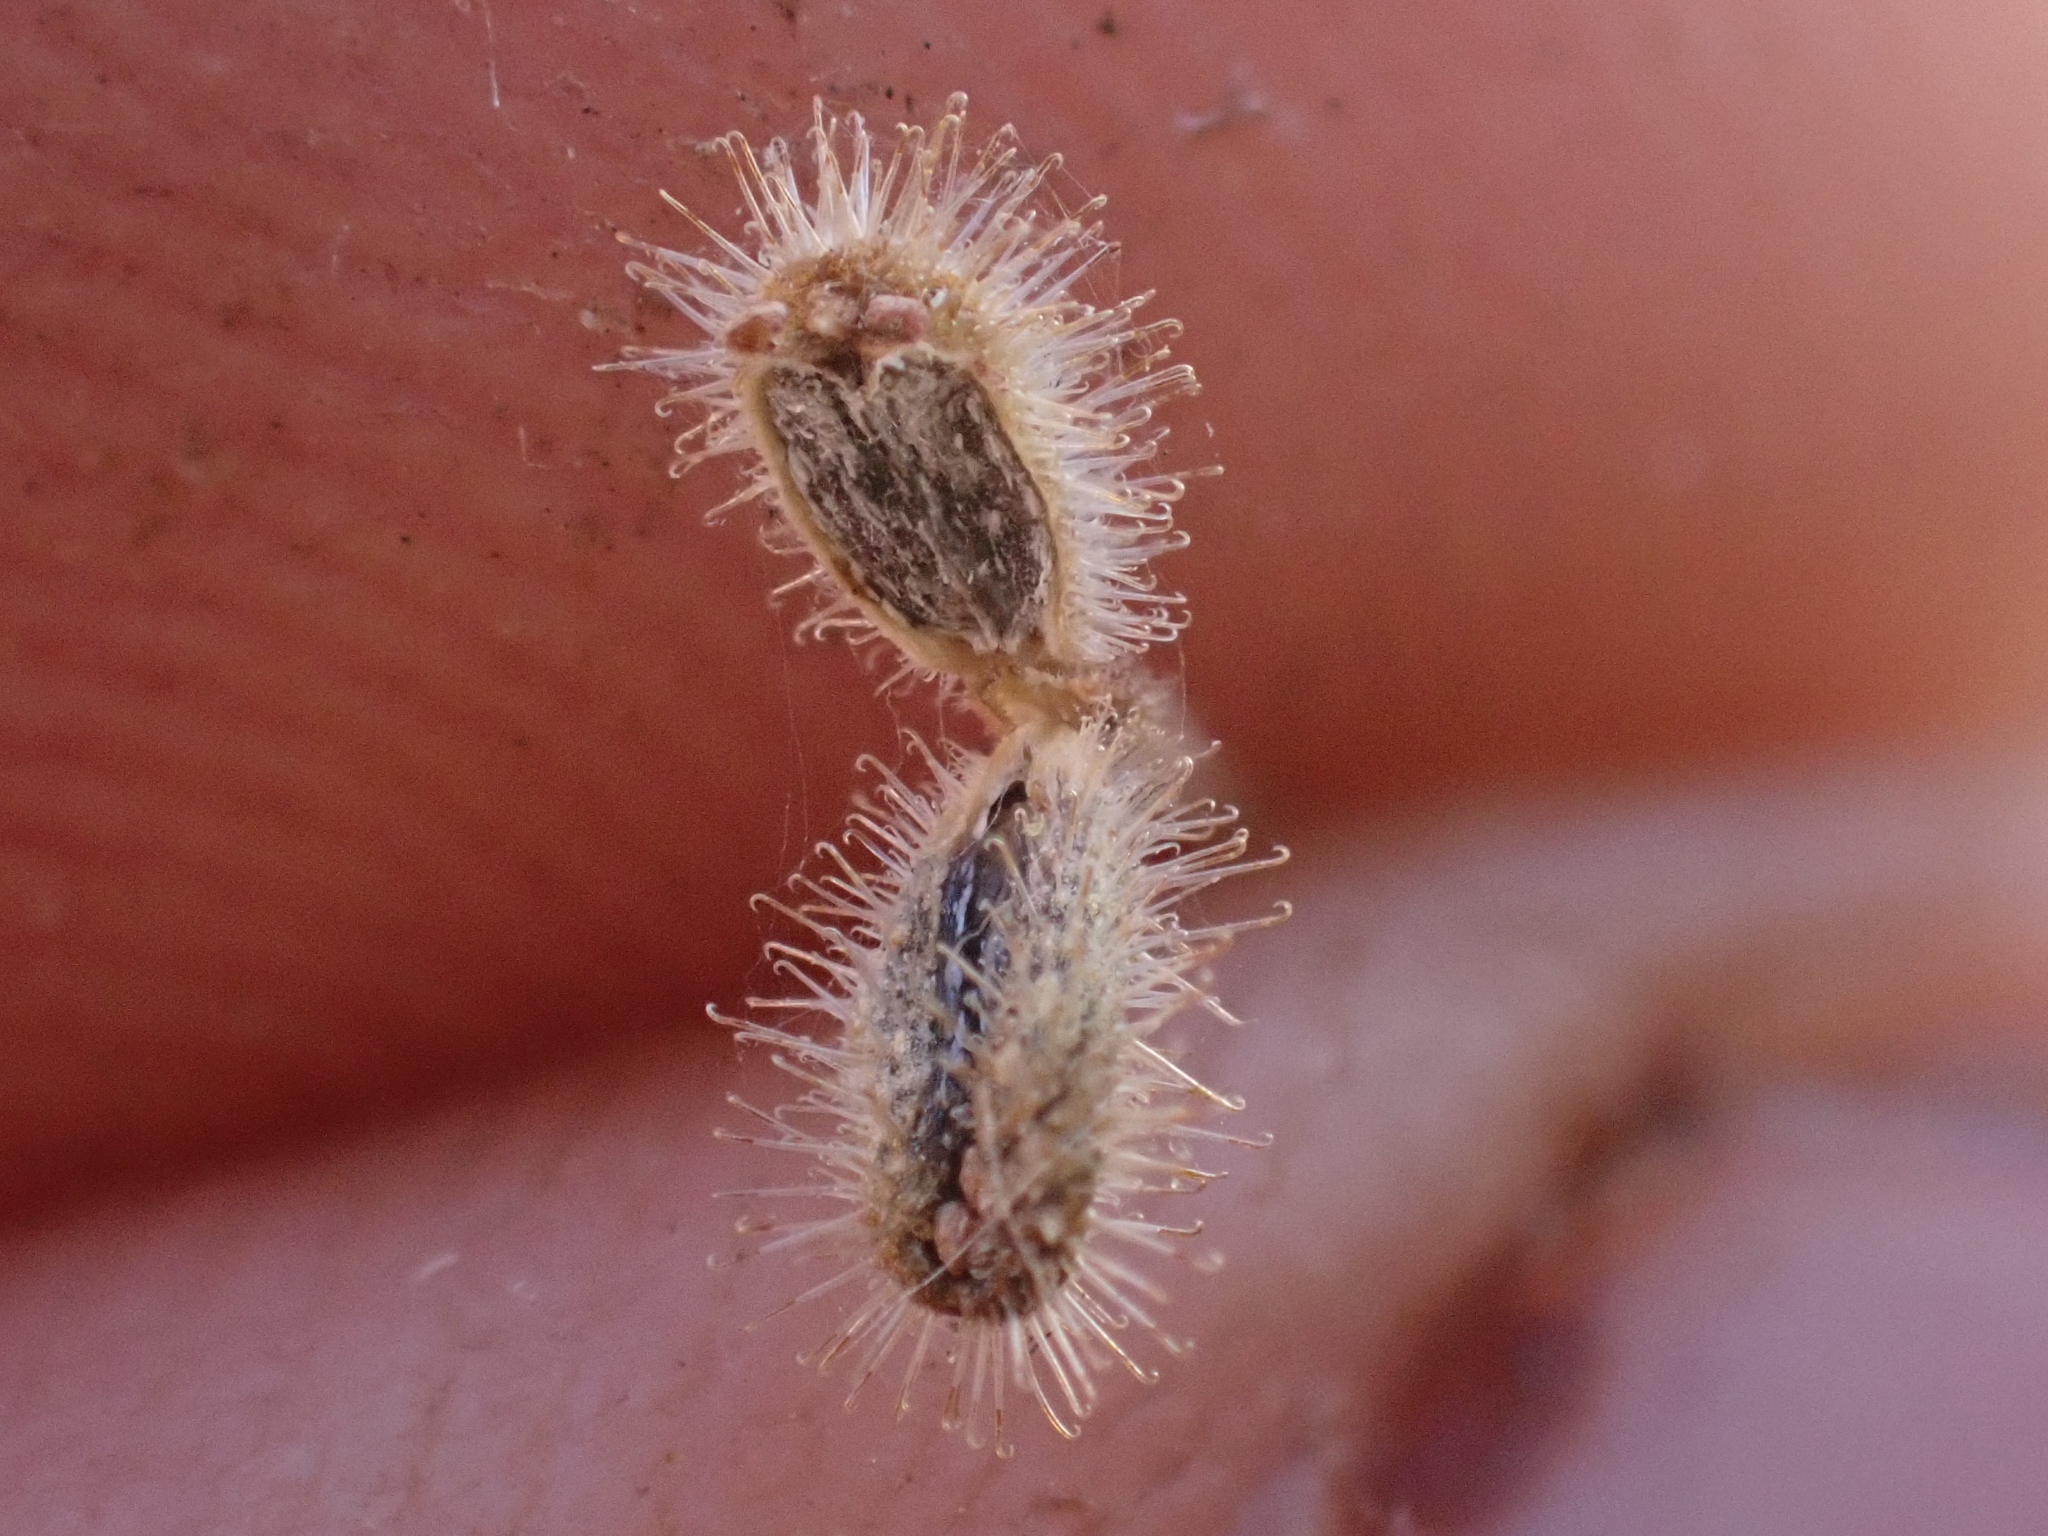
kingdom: Plantae
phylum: Tracheophyta
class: Magnoliopsida
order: Gentianales
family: Rubiaceae
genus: Kelloggia
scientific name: Kelloggia galioides
